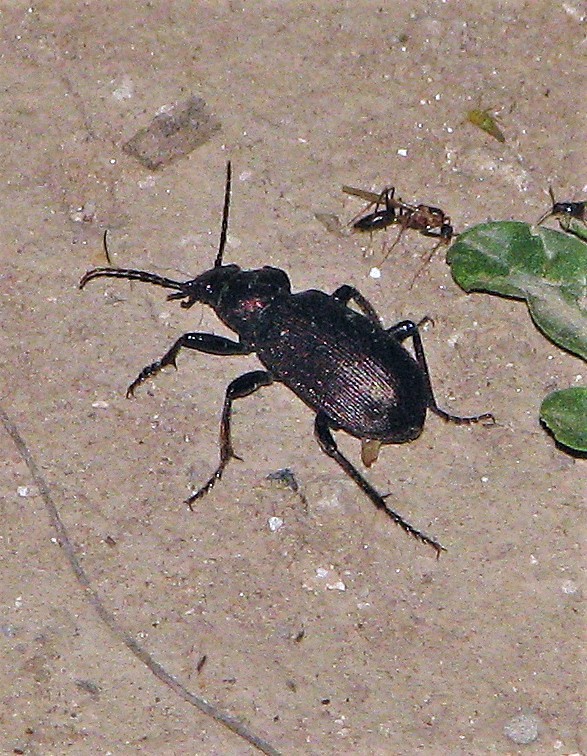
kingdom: Animalia
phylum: Arthropoda
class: Insecta
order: Coleoptera
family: Carabidae
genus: Calosoma
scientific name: Calosoma argentinense
